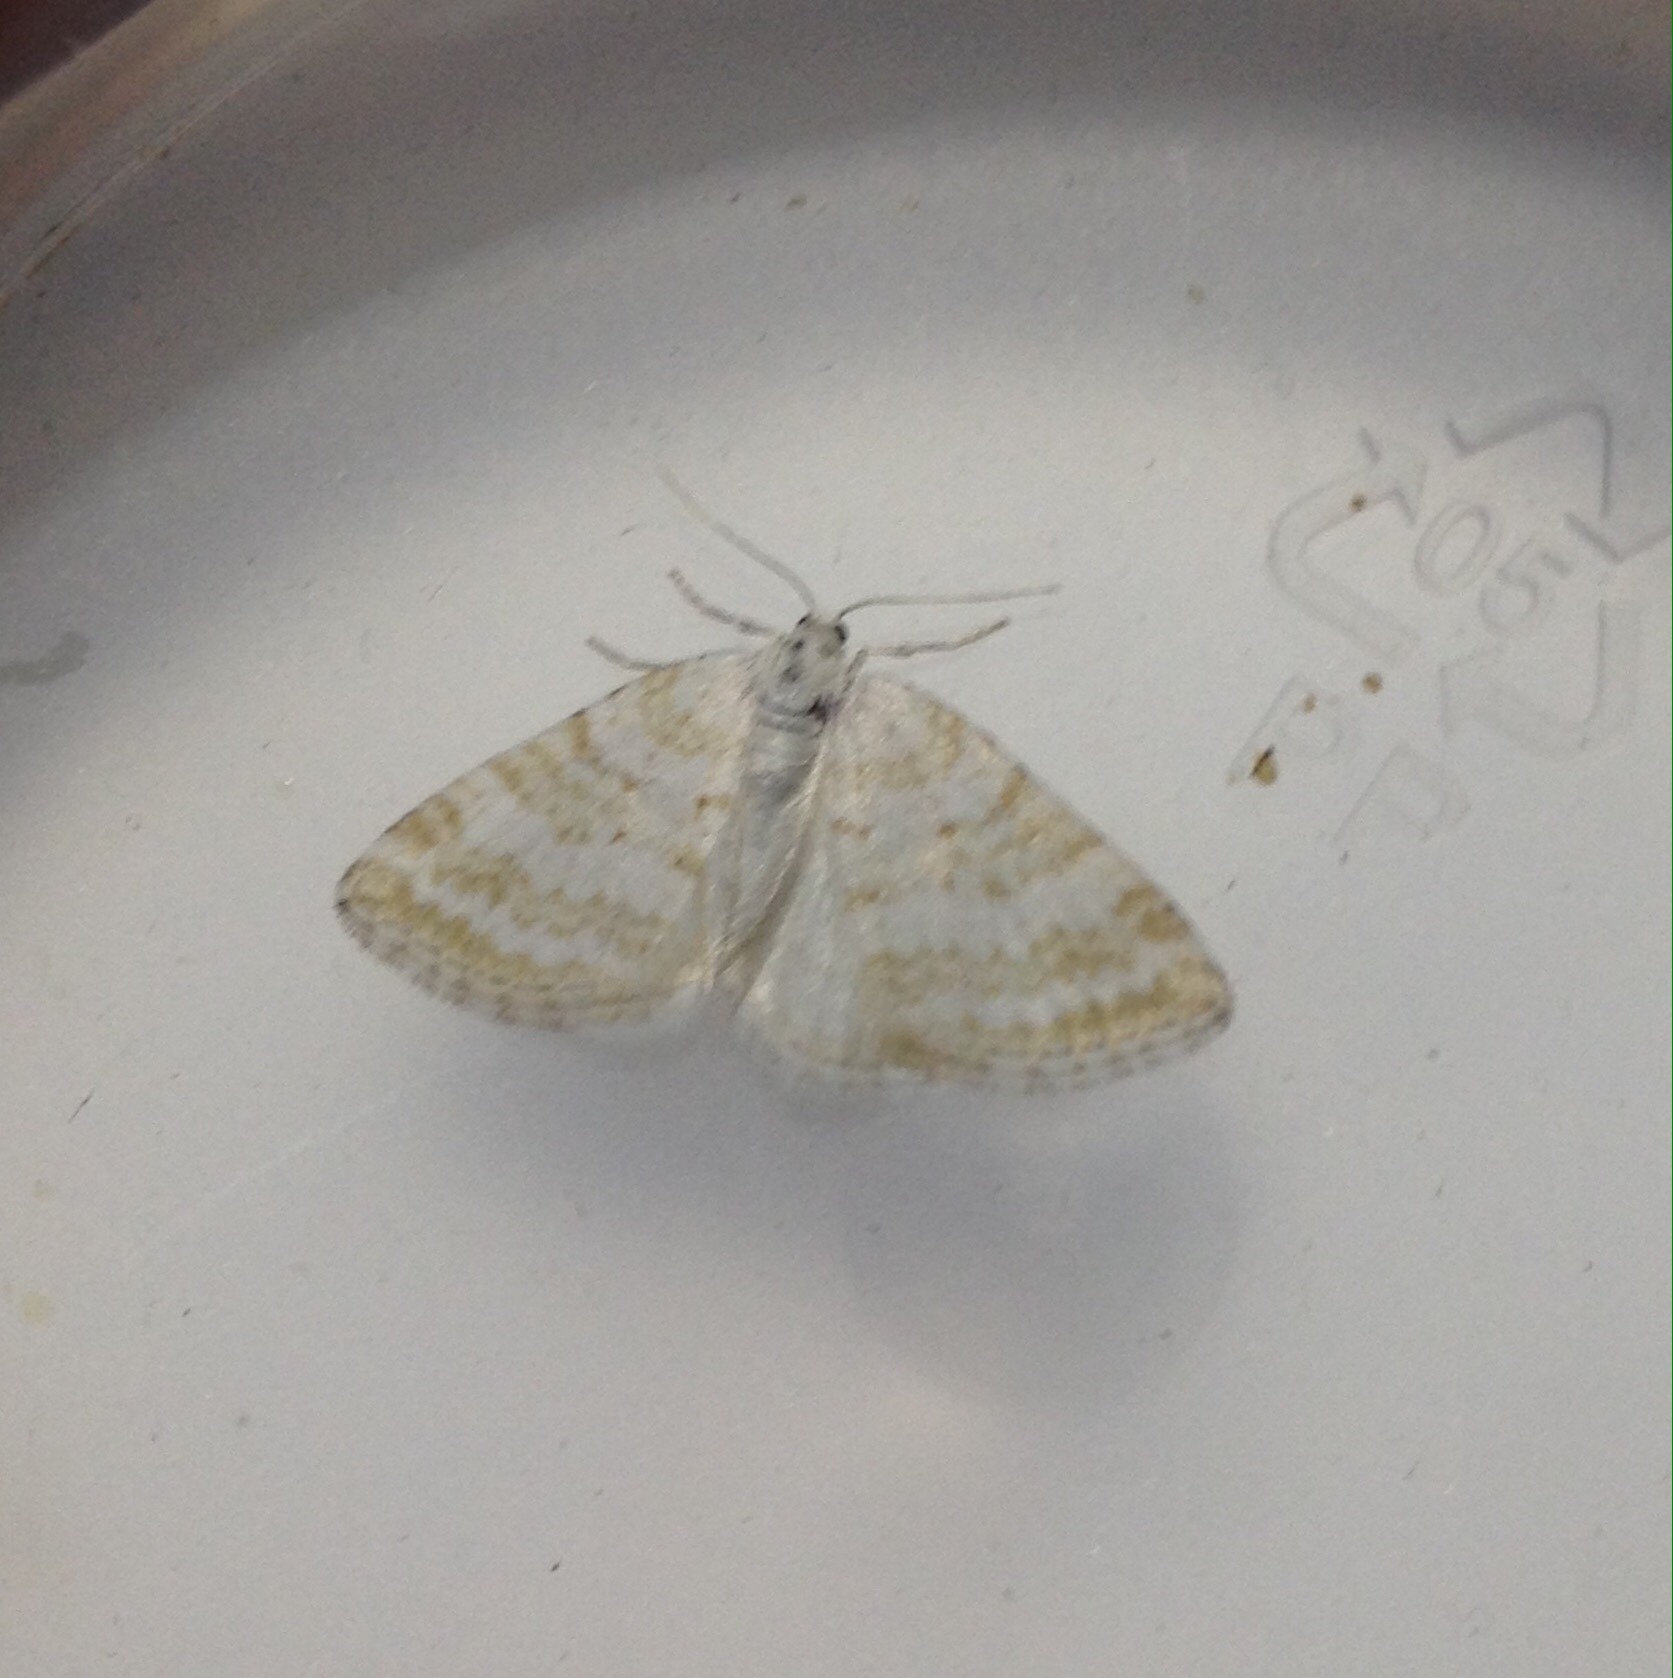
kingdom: Animalia
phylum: Arthropoda
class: Insecta
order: Lepidoptera
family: Geometridae
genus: Perizoma
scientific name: Perizoma albulata
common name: Grass rivulet
